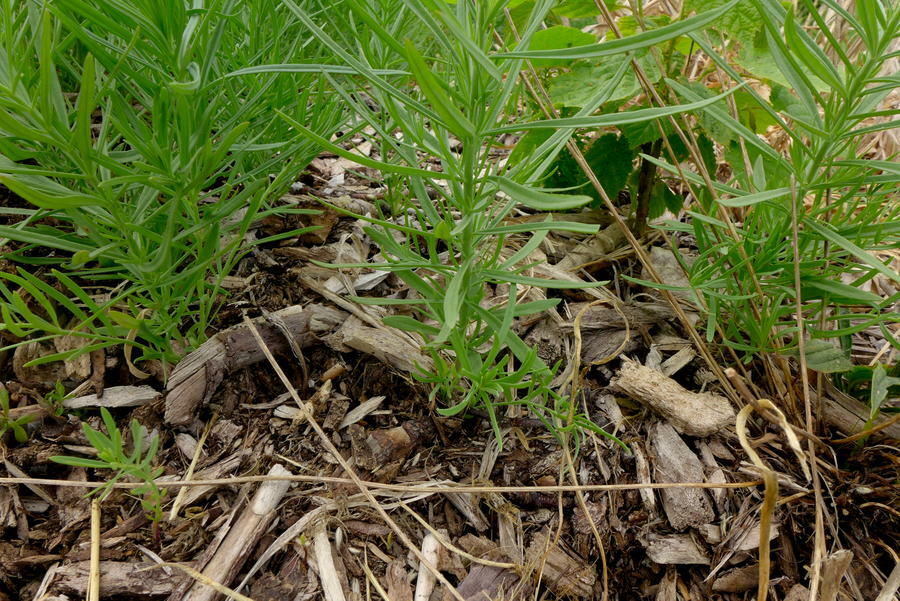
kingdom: Plantae
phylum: Tracheophyta
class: Magnoliopsida
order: Lamiales
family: Plantaginaceae
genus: Linaria
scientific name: Linaria vulgaris
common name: Butter and eggs
